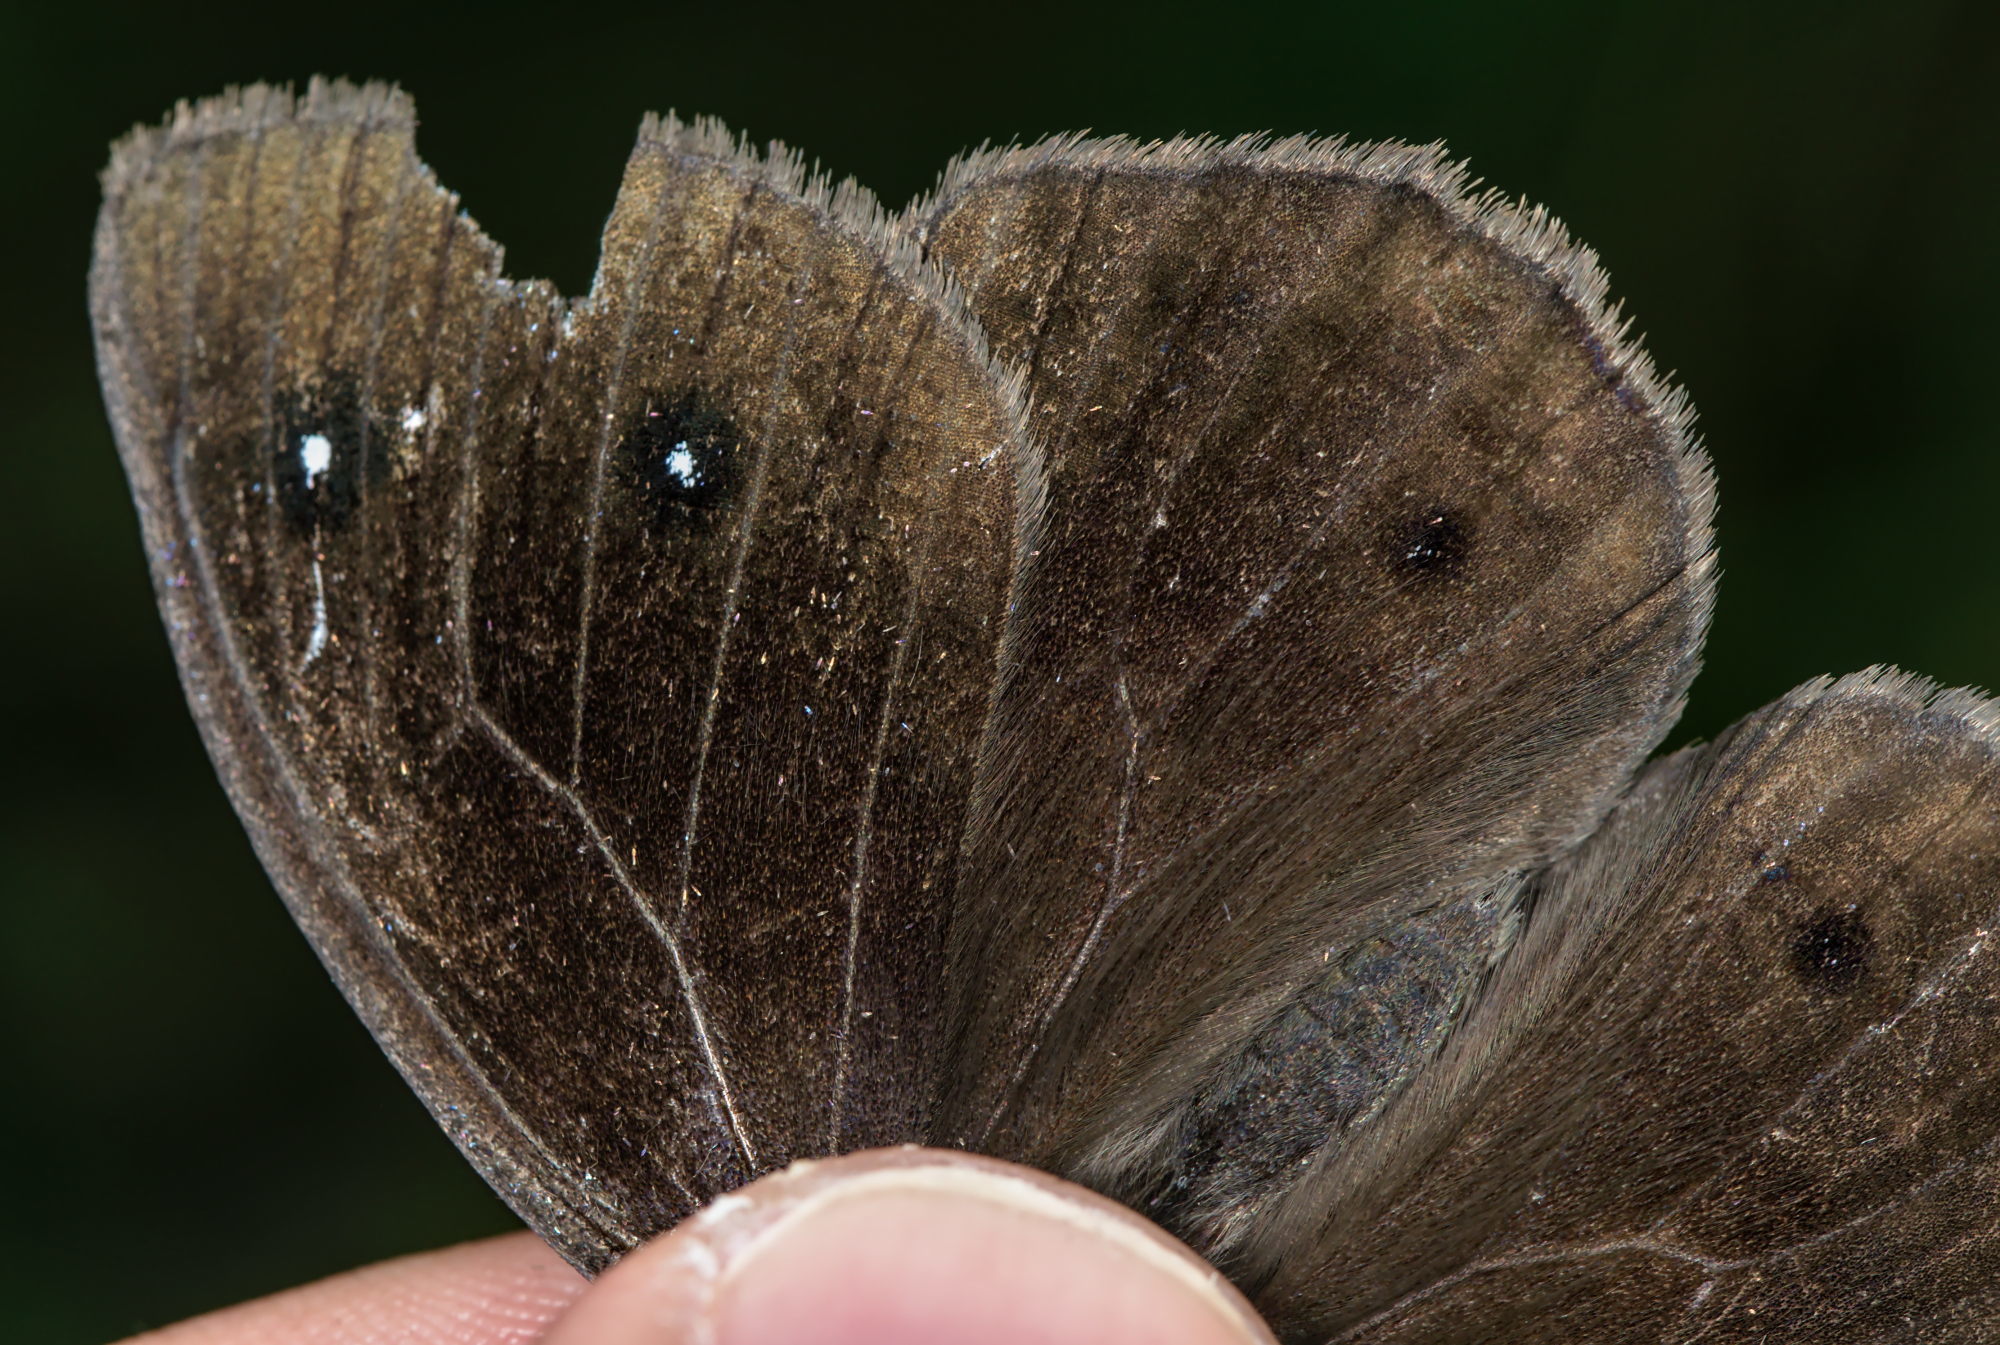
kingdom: Animalia
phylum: Arthropoda
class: Insecta
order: Lepidoptera
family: Nymphalidae
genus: Satyrus
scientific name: Satyrus ferula
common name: Great sooty satyr
